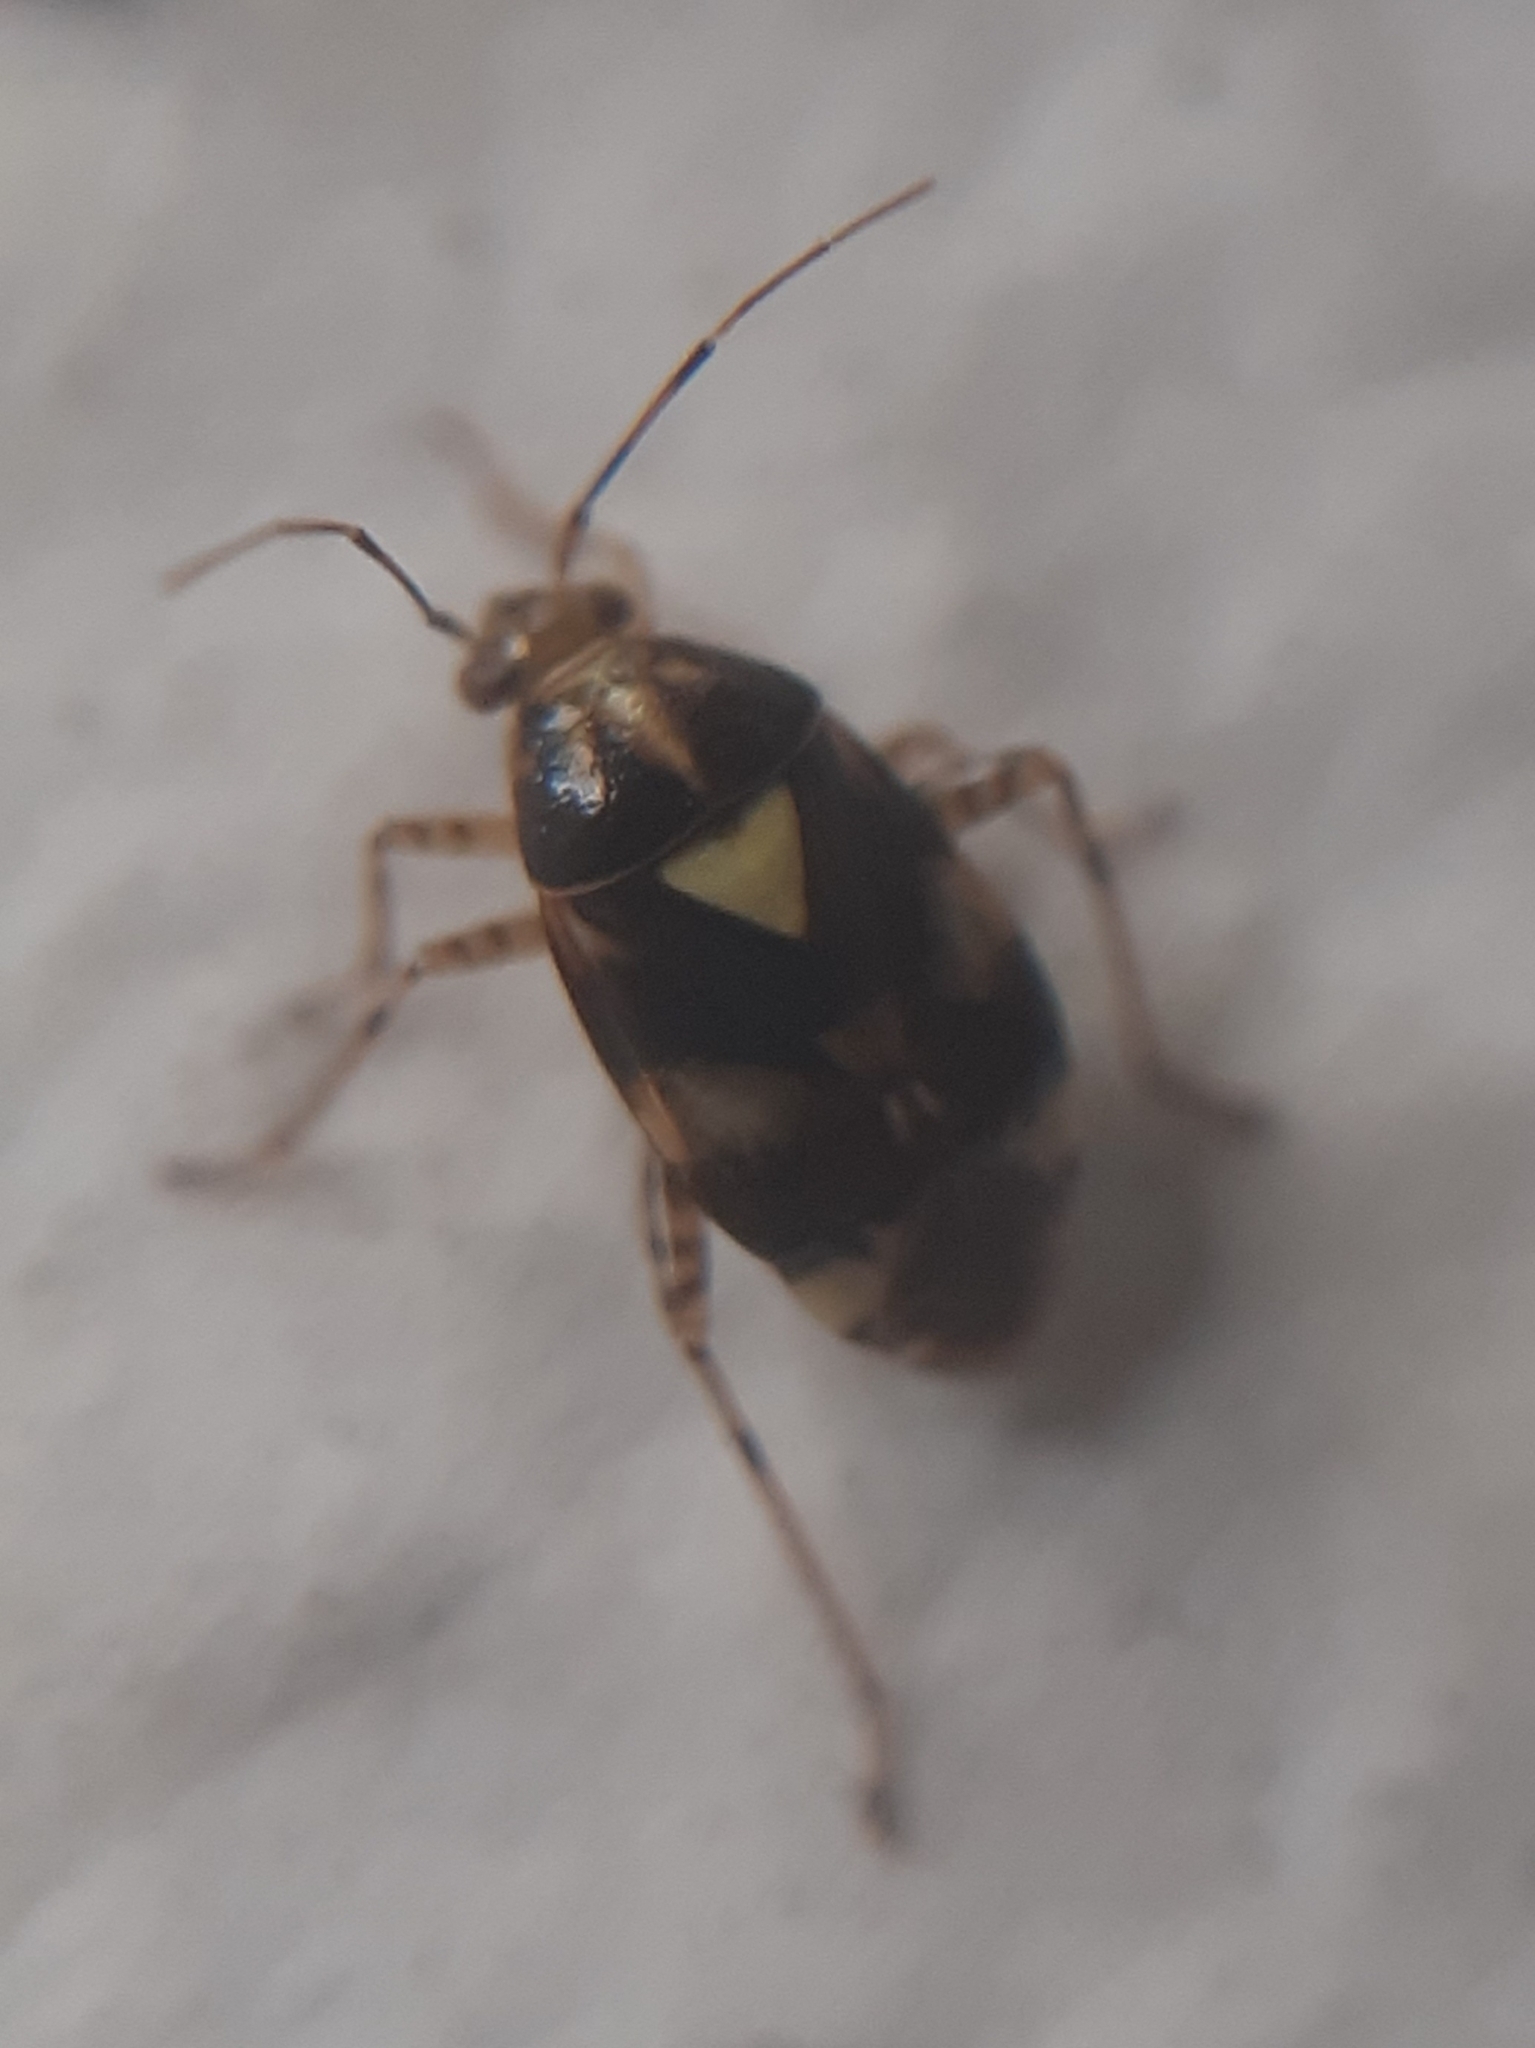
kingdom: Animalia
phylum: Arthropoda
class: Insecta
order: Hemiptera
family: Miridae
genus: Liocoris
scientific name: Liocoris tripustulatus
